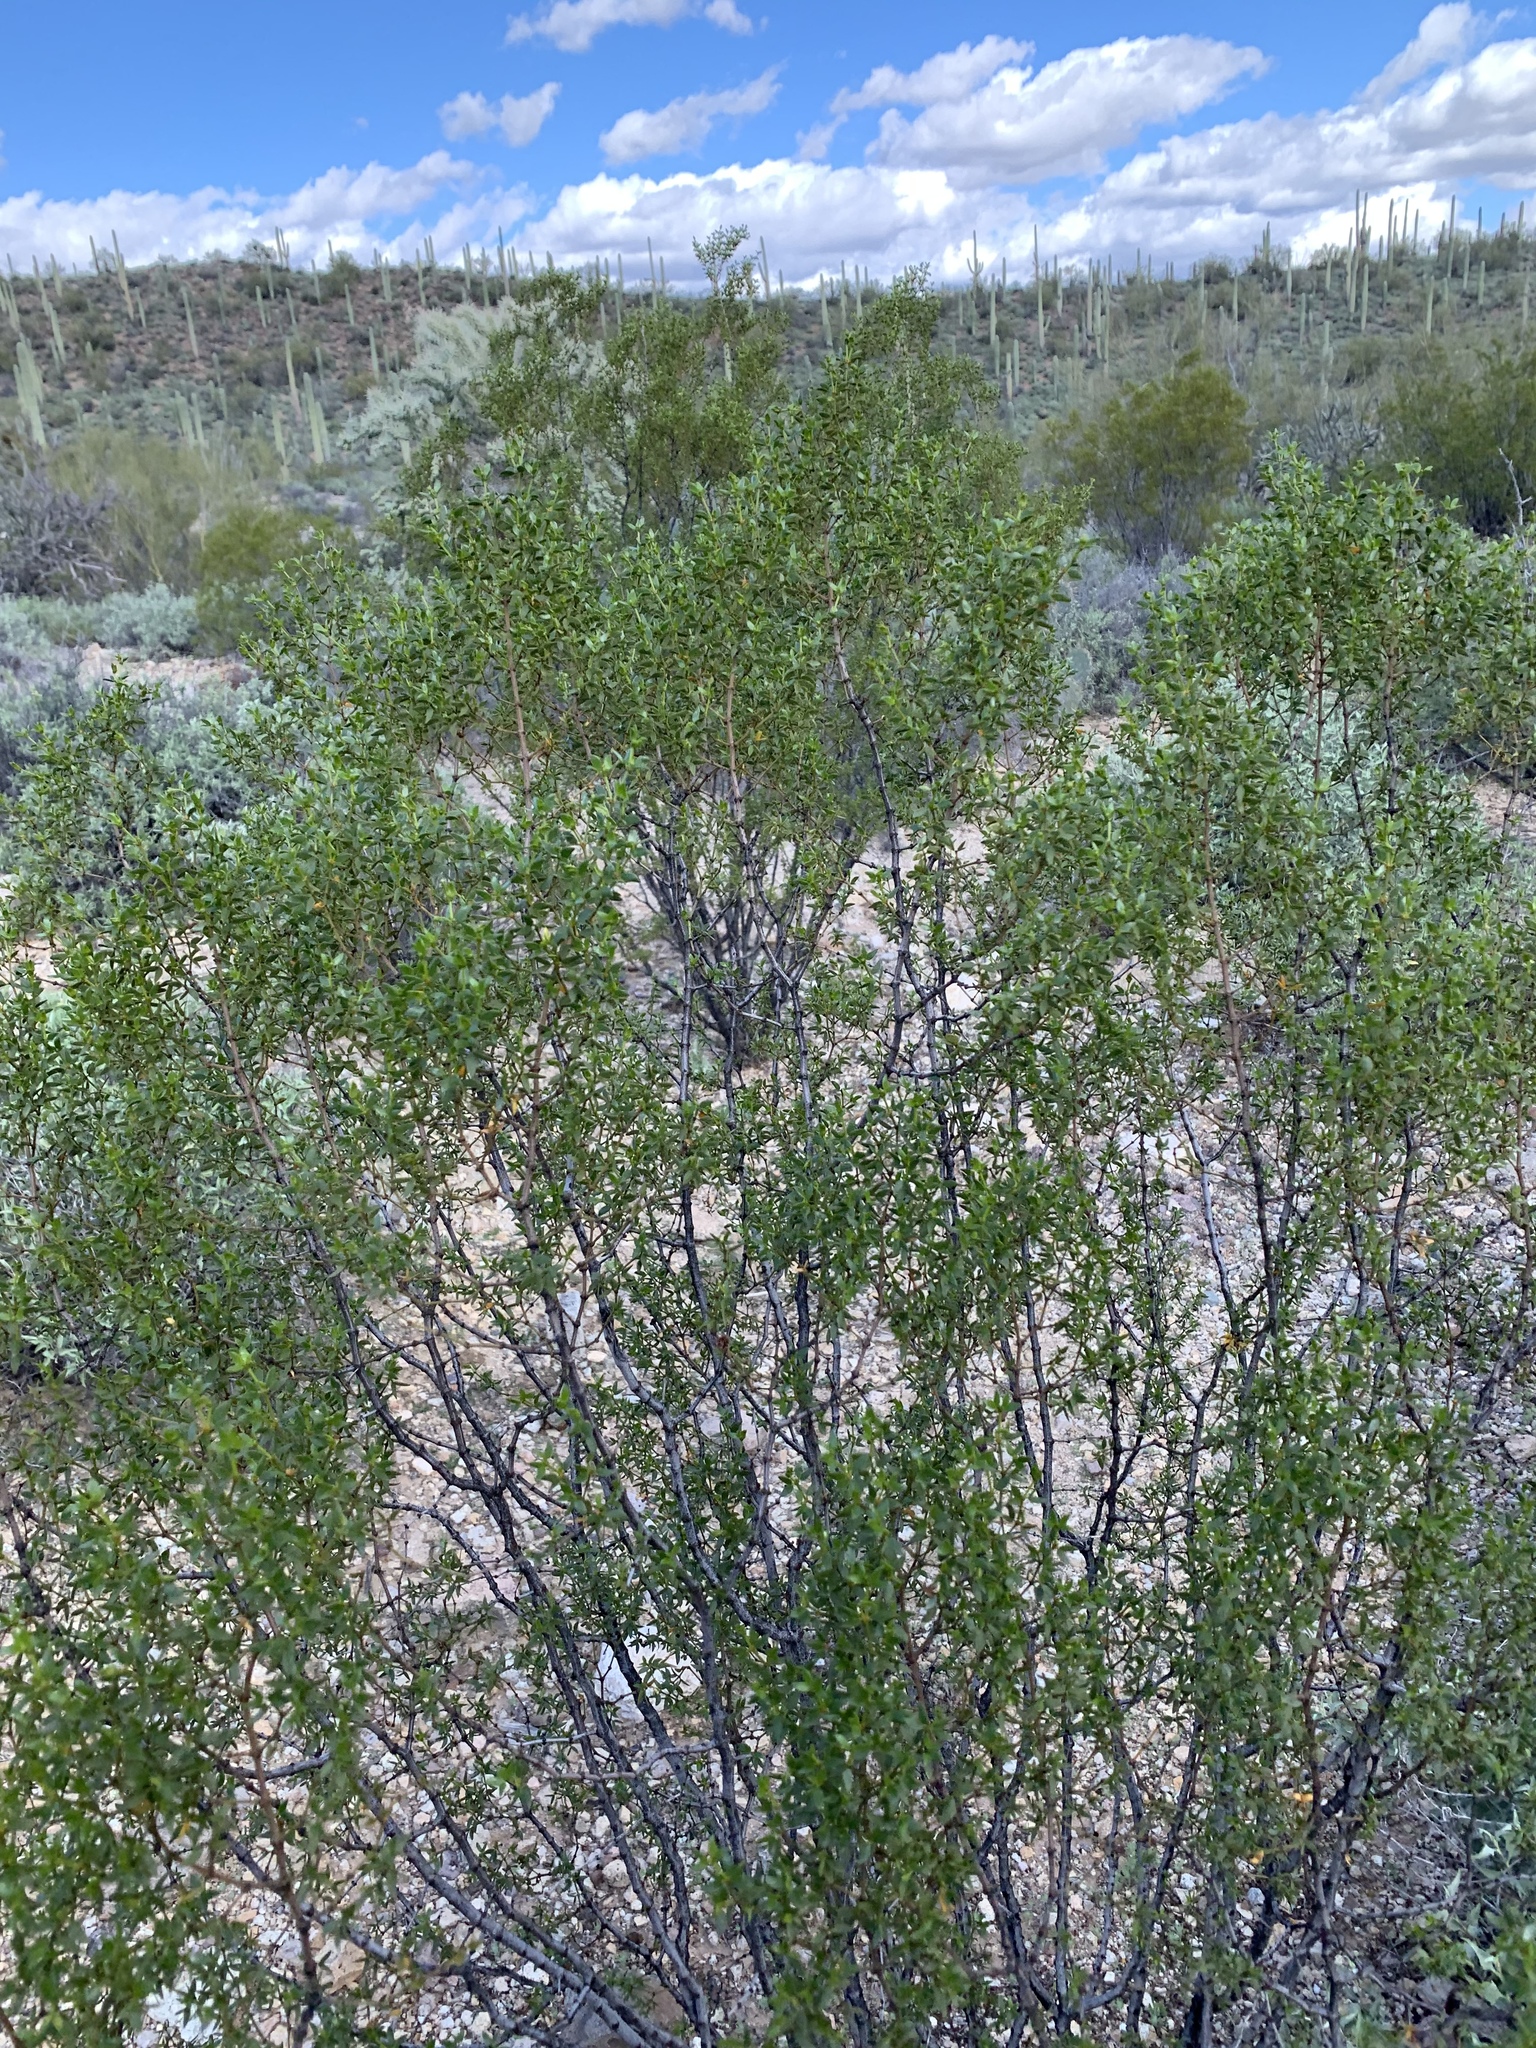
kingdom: Plantae
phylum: Tracheophyta
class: Magnoliopsida
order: Zygophyllales
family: Zygophyllaceae
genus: Larrea
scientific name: Larrea tridentata
